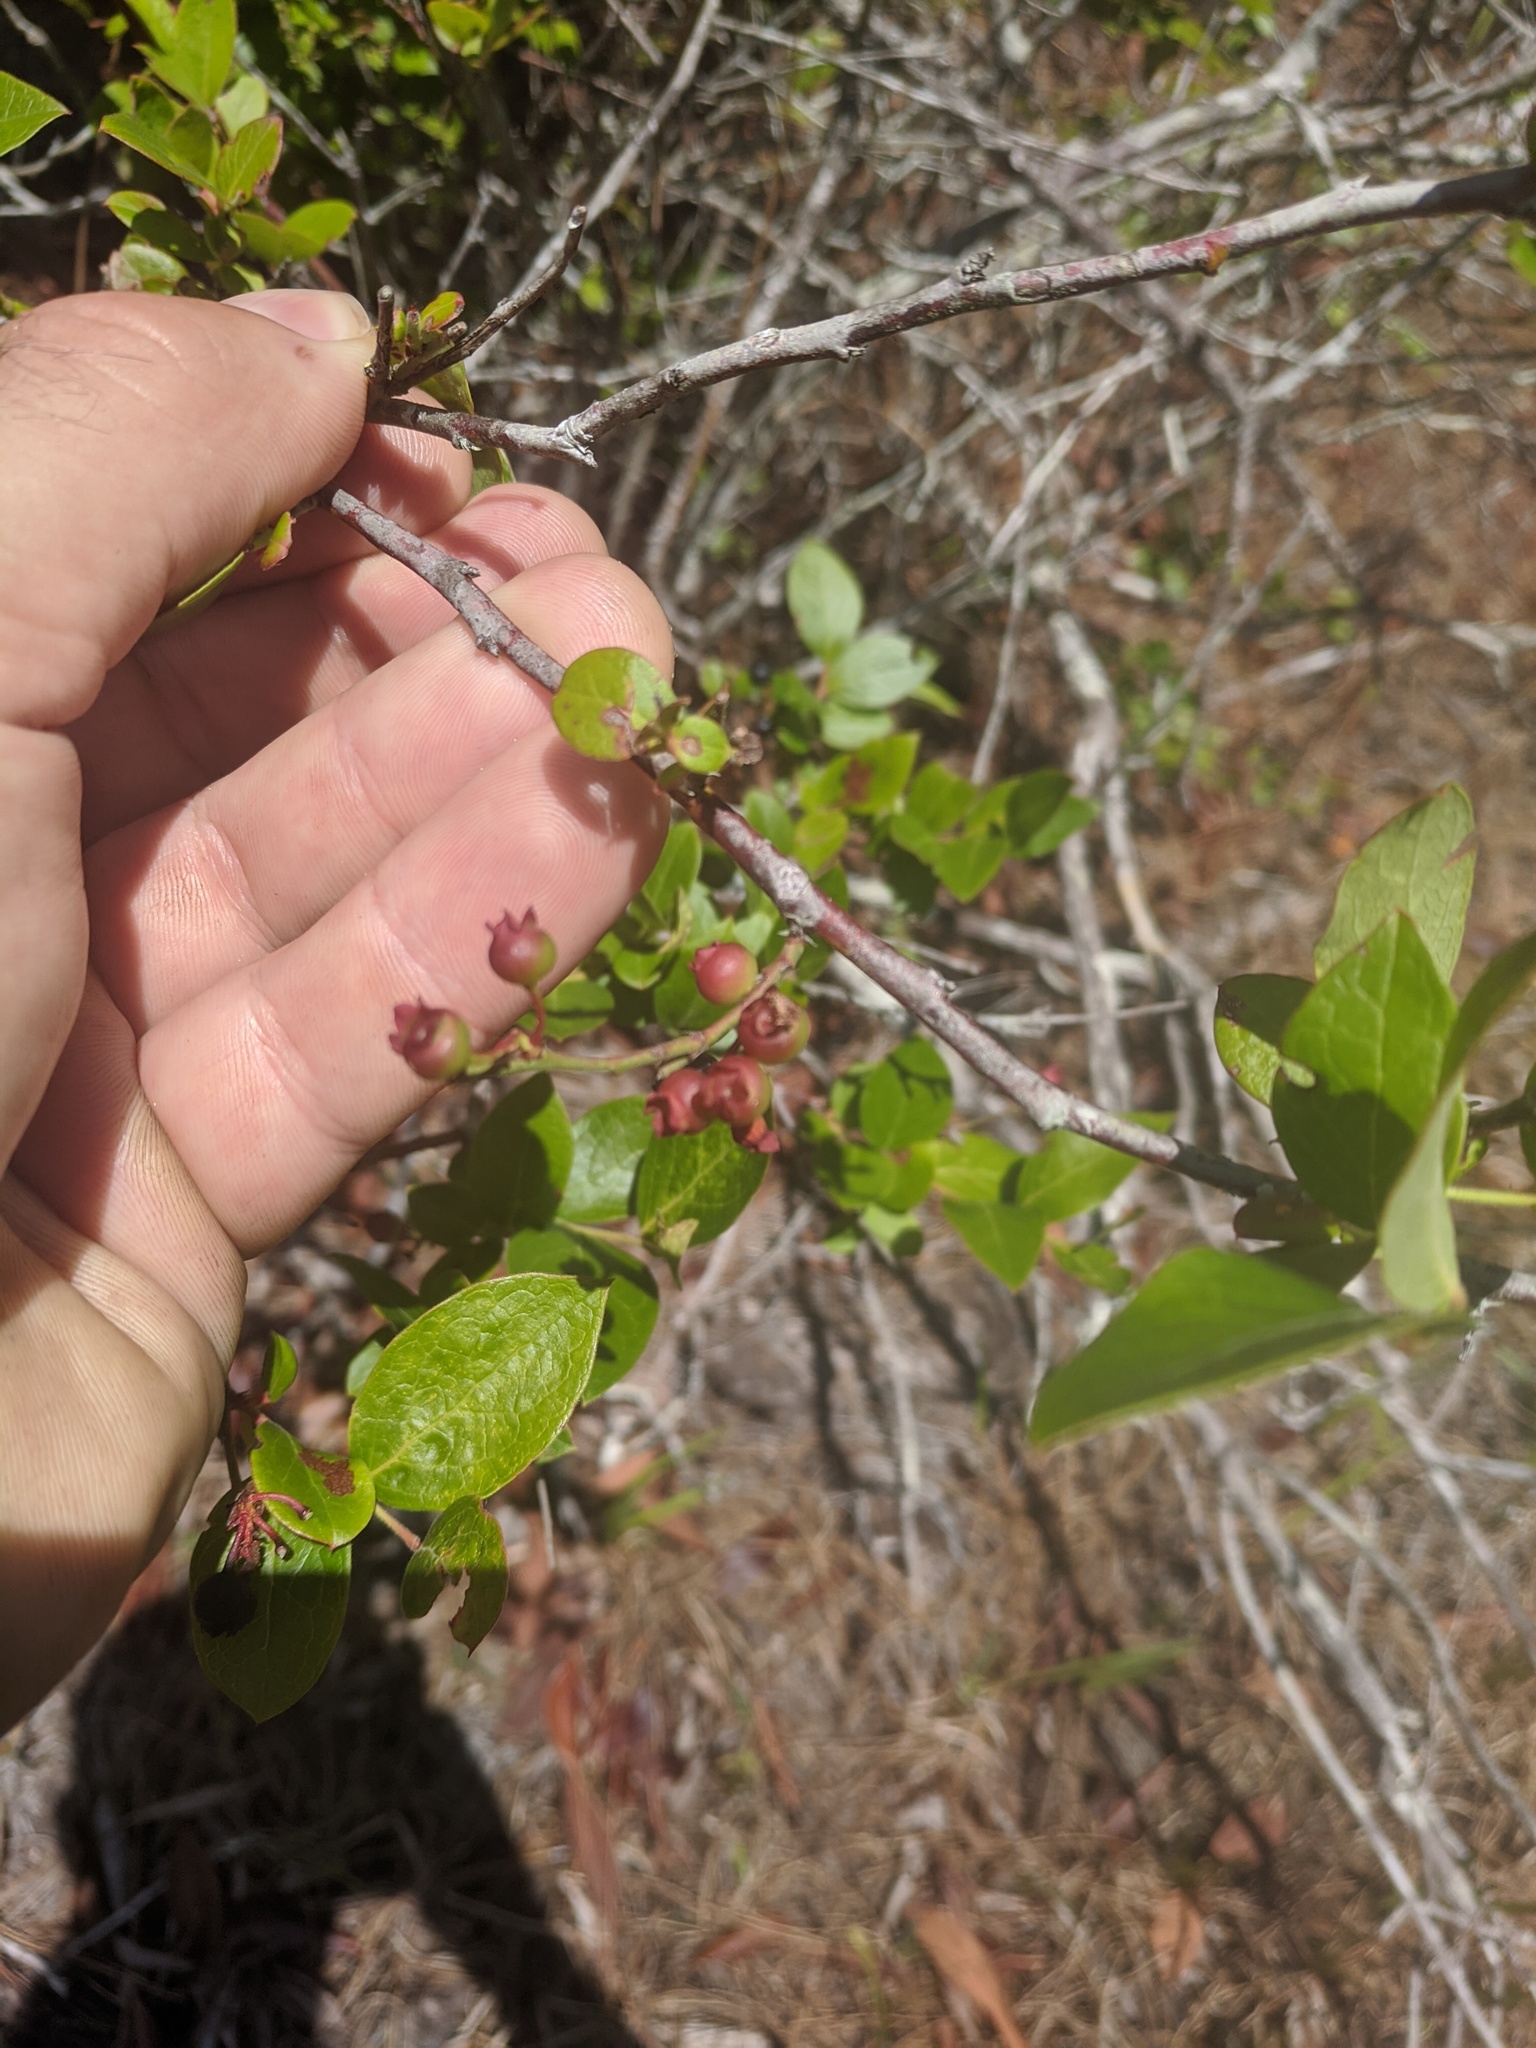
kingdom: Plantae
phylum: Tracheophyta
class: Magnoliopsida
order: Ericales
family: Ericaceae
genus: Vaccinium
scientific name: Vaccinium corymbosum
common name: Blueberry
